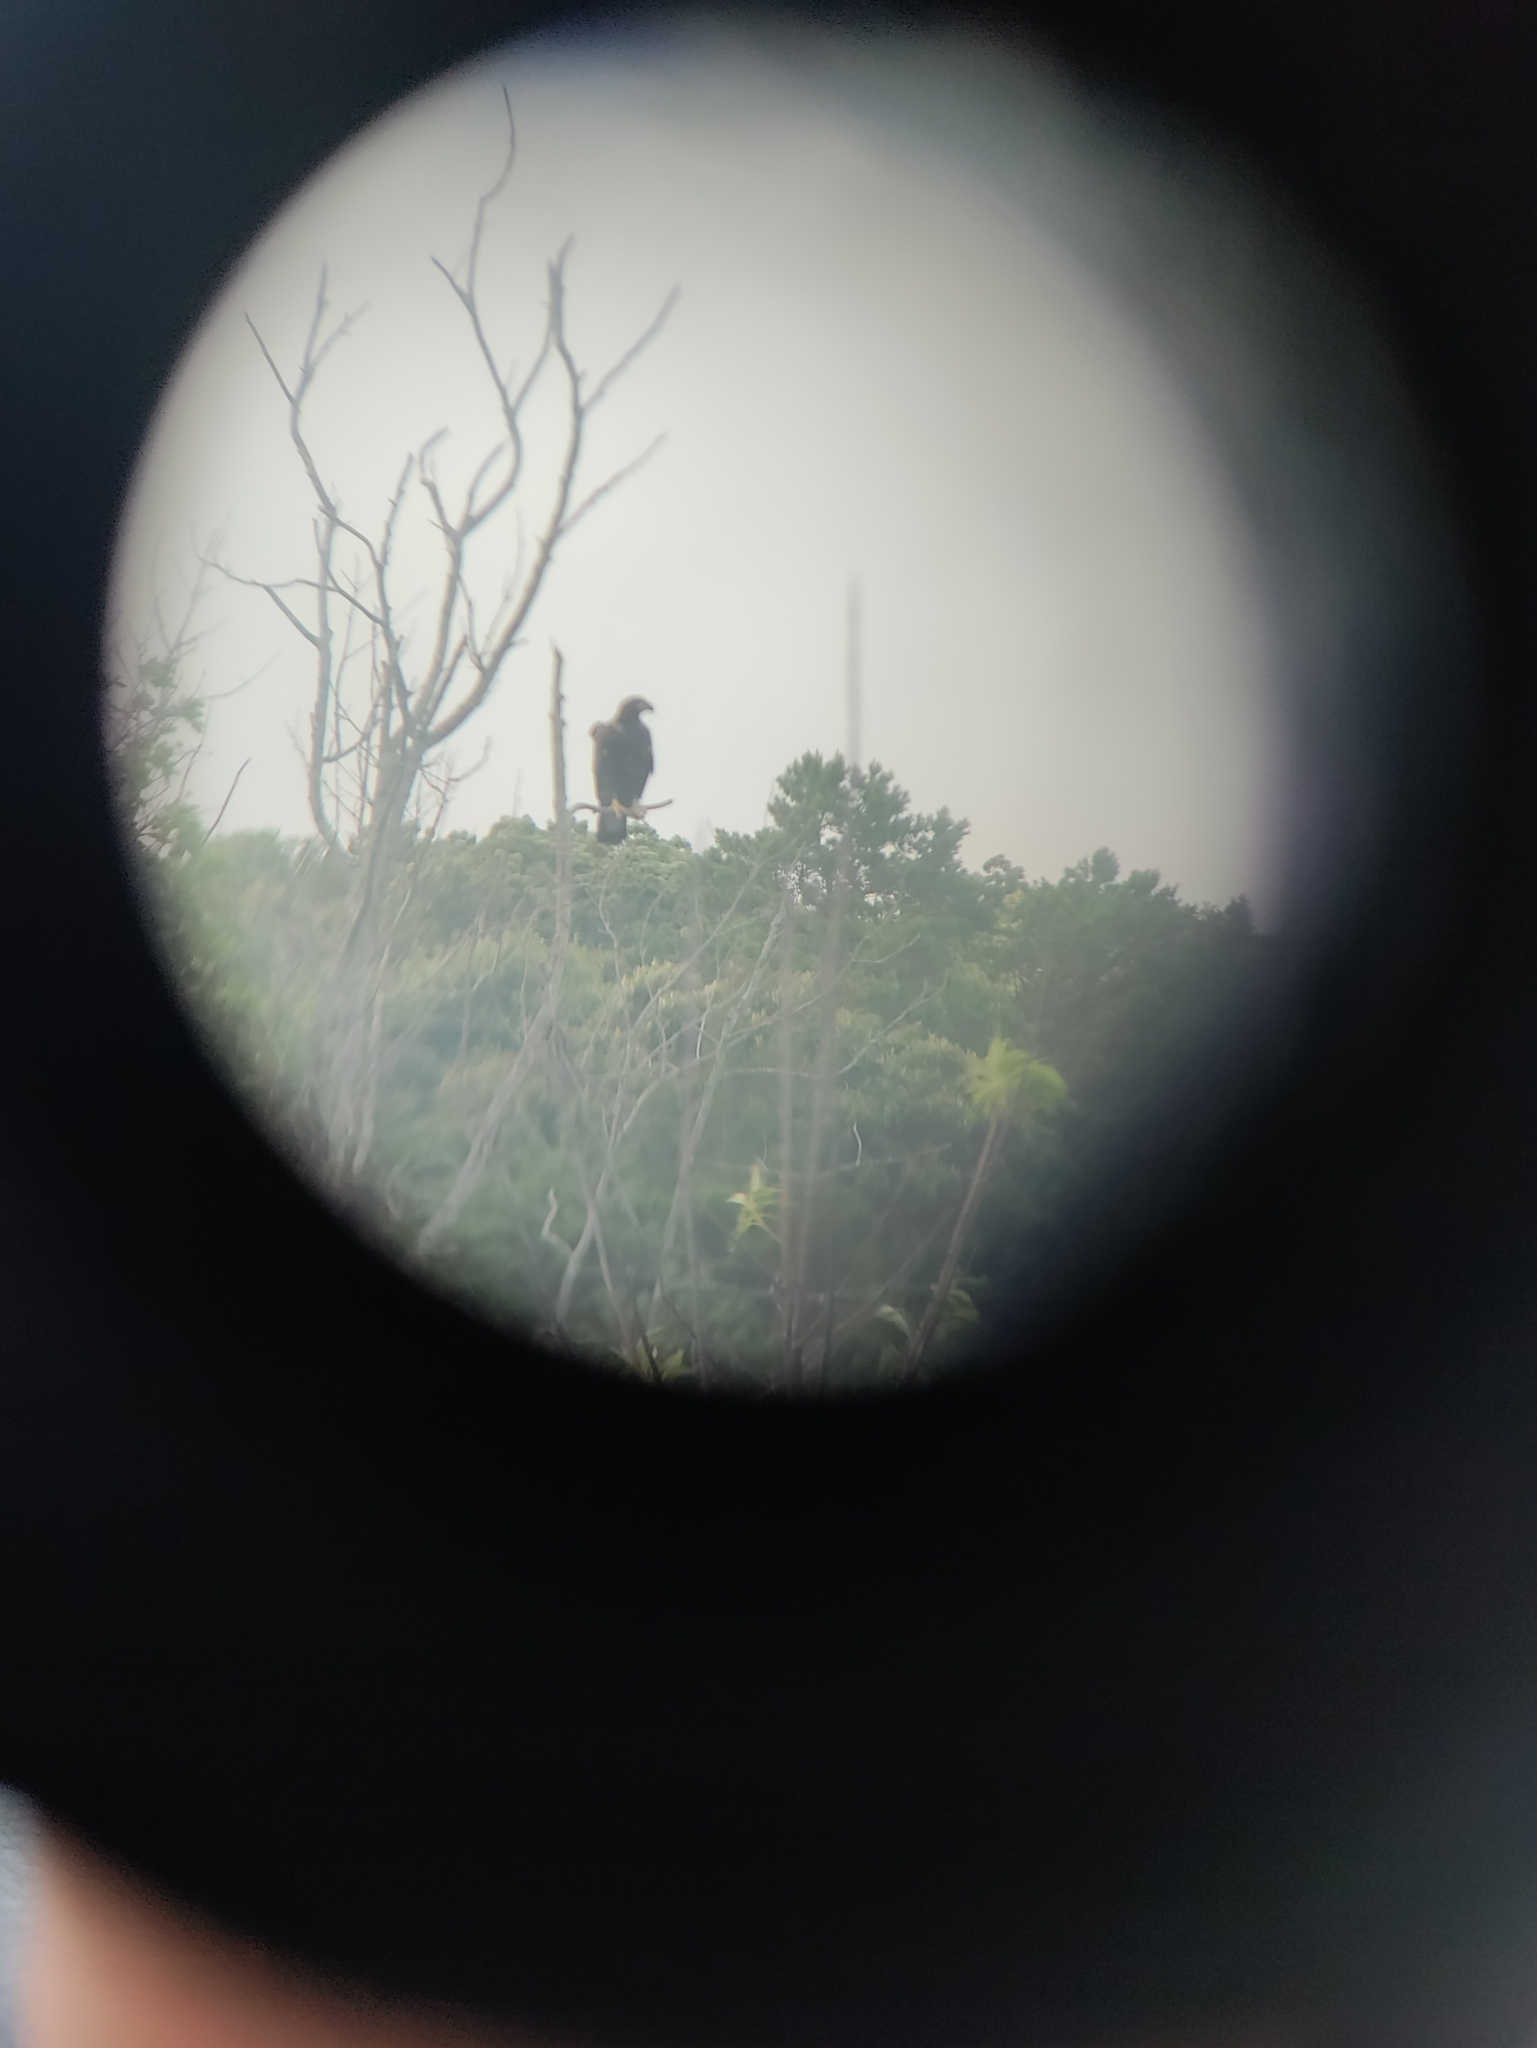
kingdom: Animalia
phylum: Chordata
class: Aves
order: Accipitriformes
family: Accipitridae
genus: Haliaeetus
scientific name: Haliaeetus leucocephalus
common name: Bald eagle
